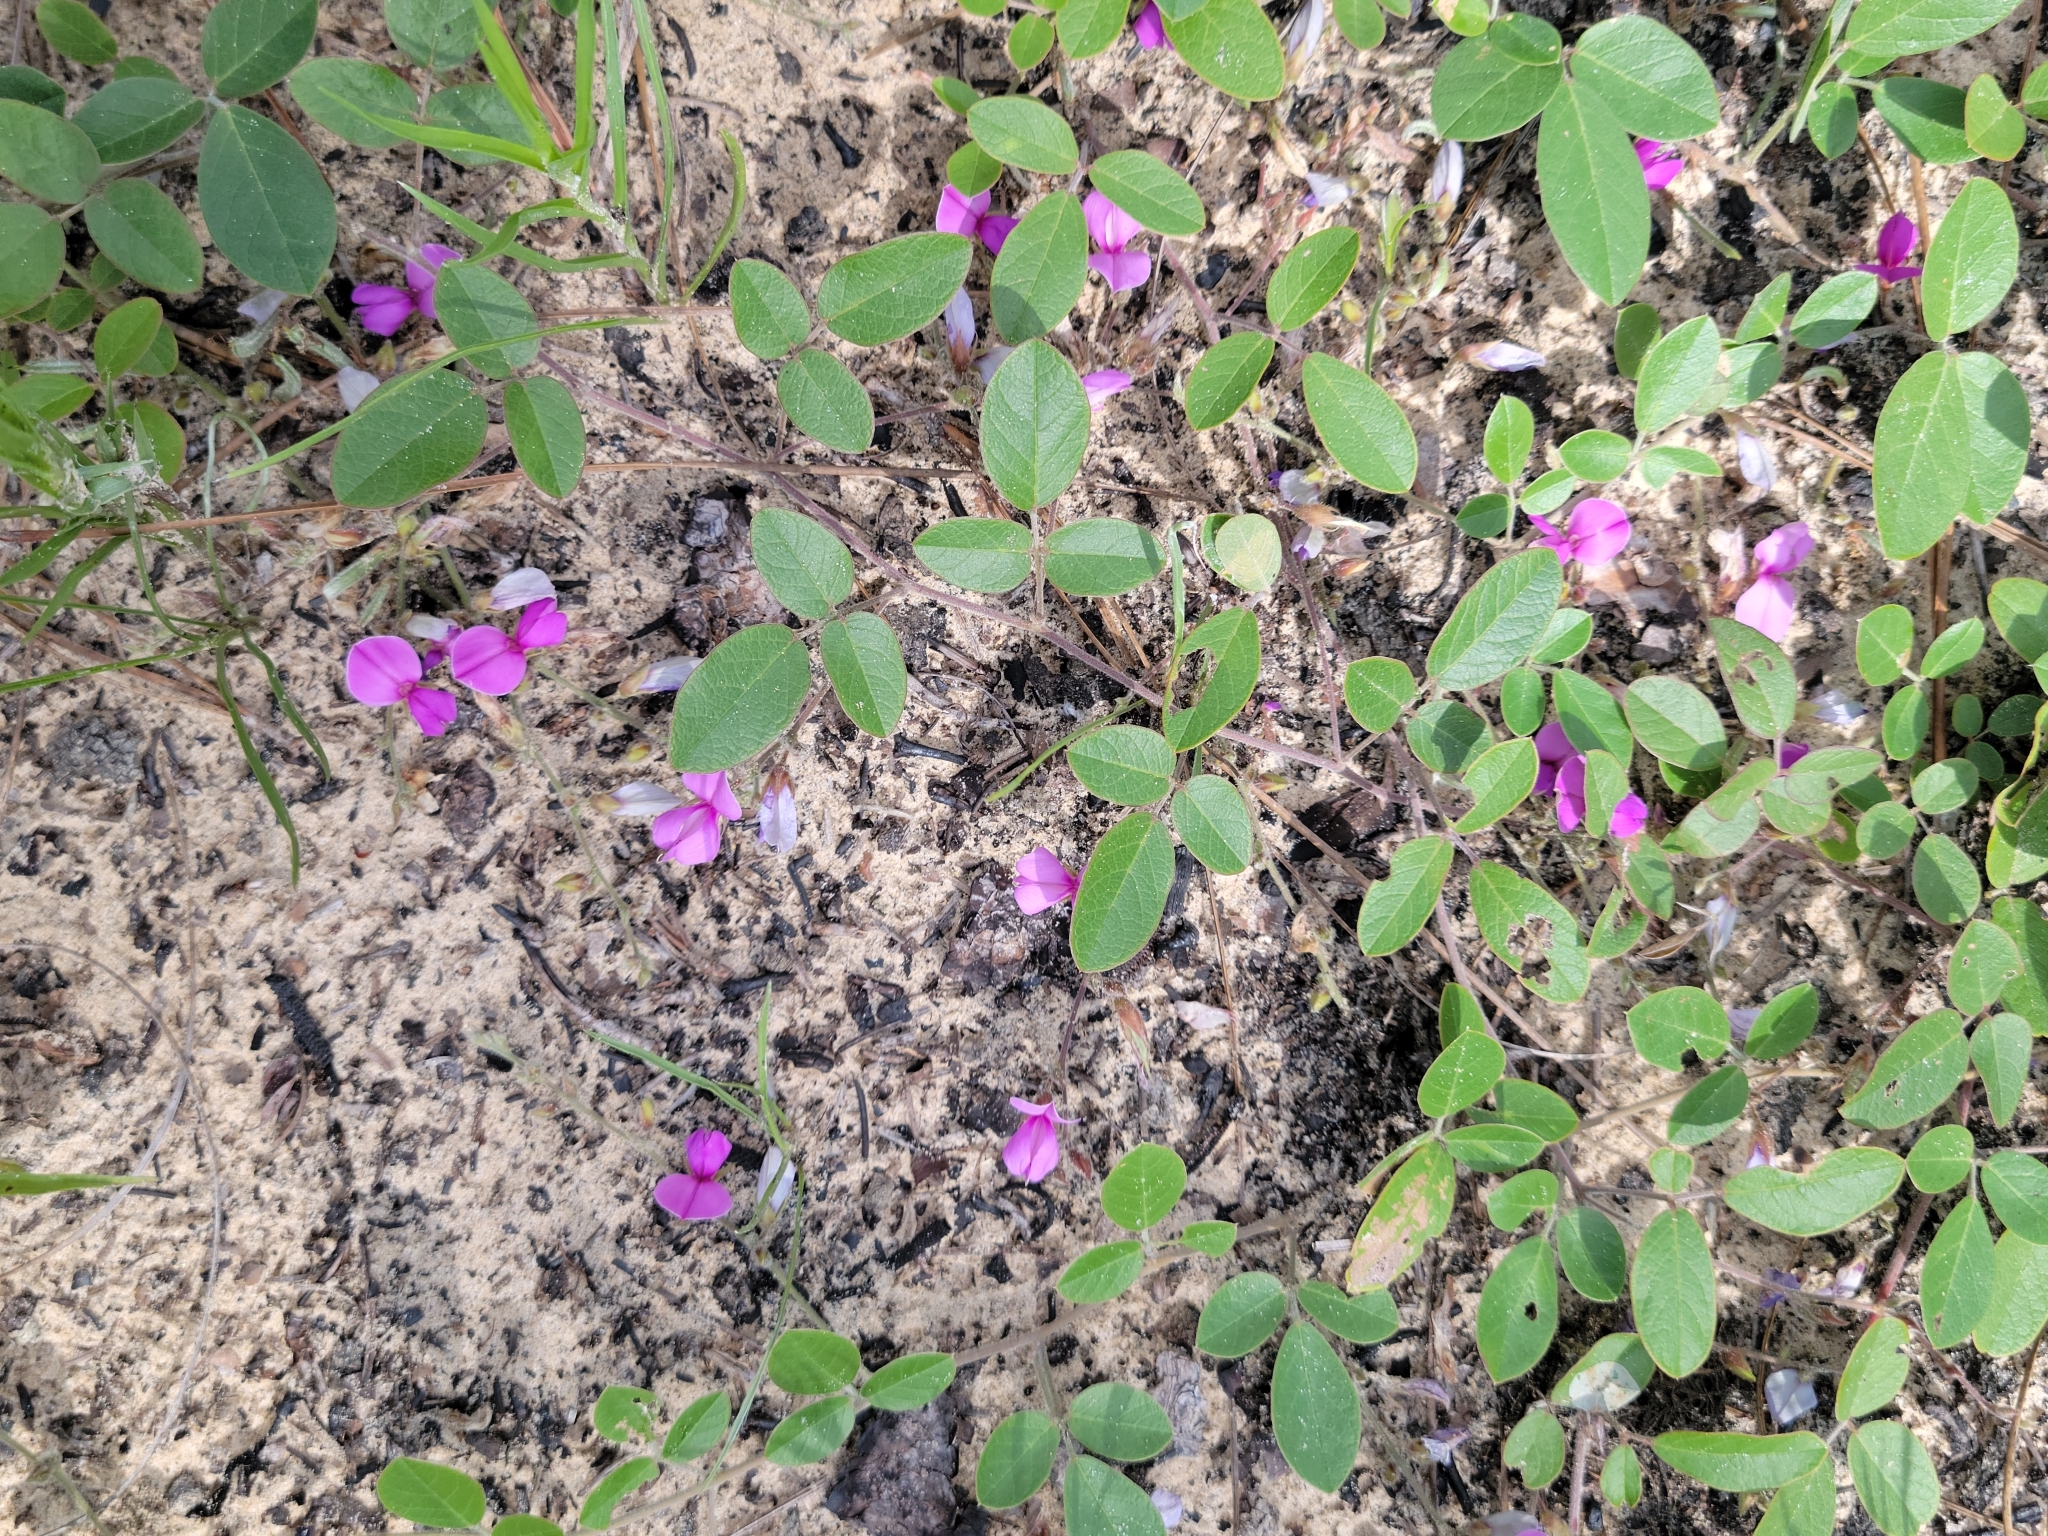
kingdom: Plantae
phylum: Tracheophyta
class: Magnoliopsida
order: Fabales
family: Fabaceae
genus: Galactia
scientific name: Galactia floridana
